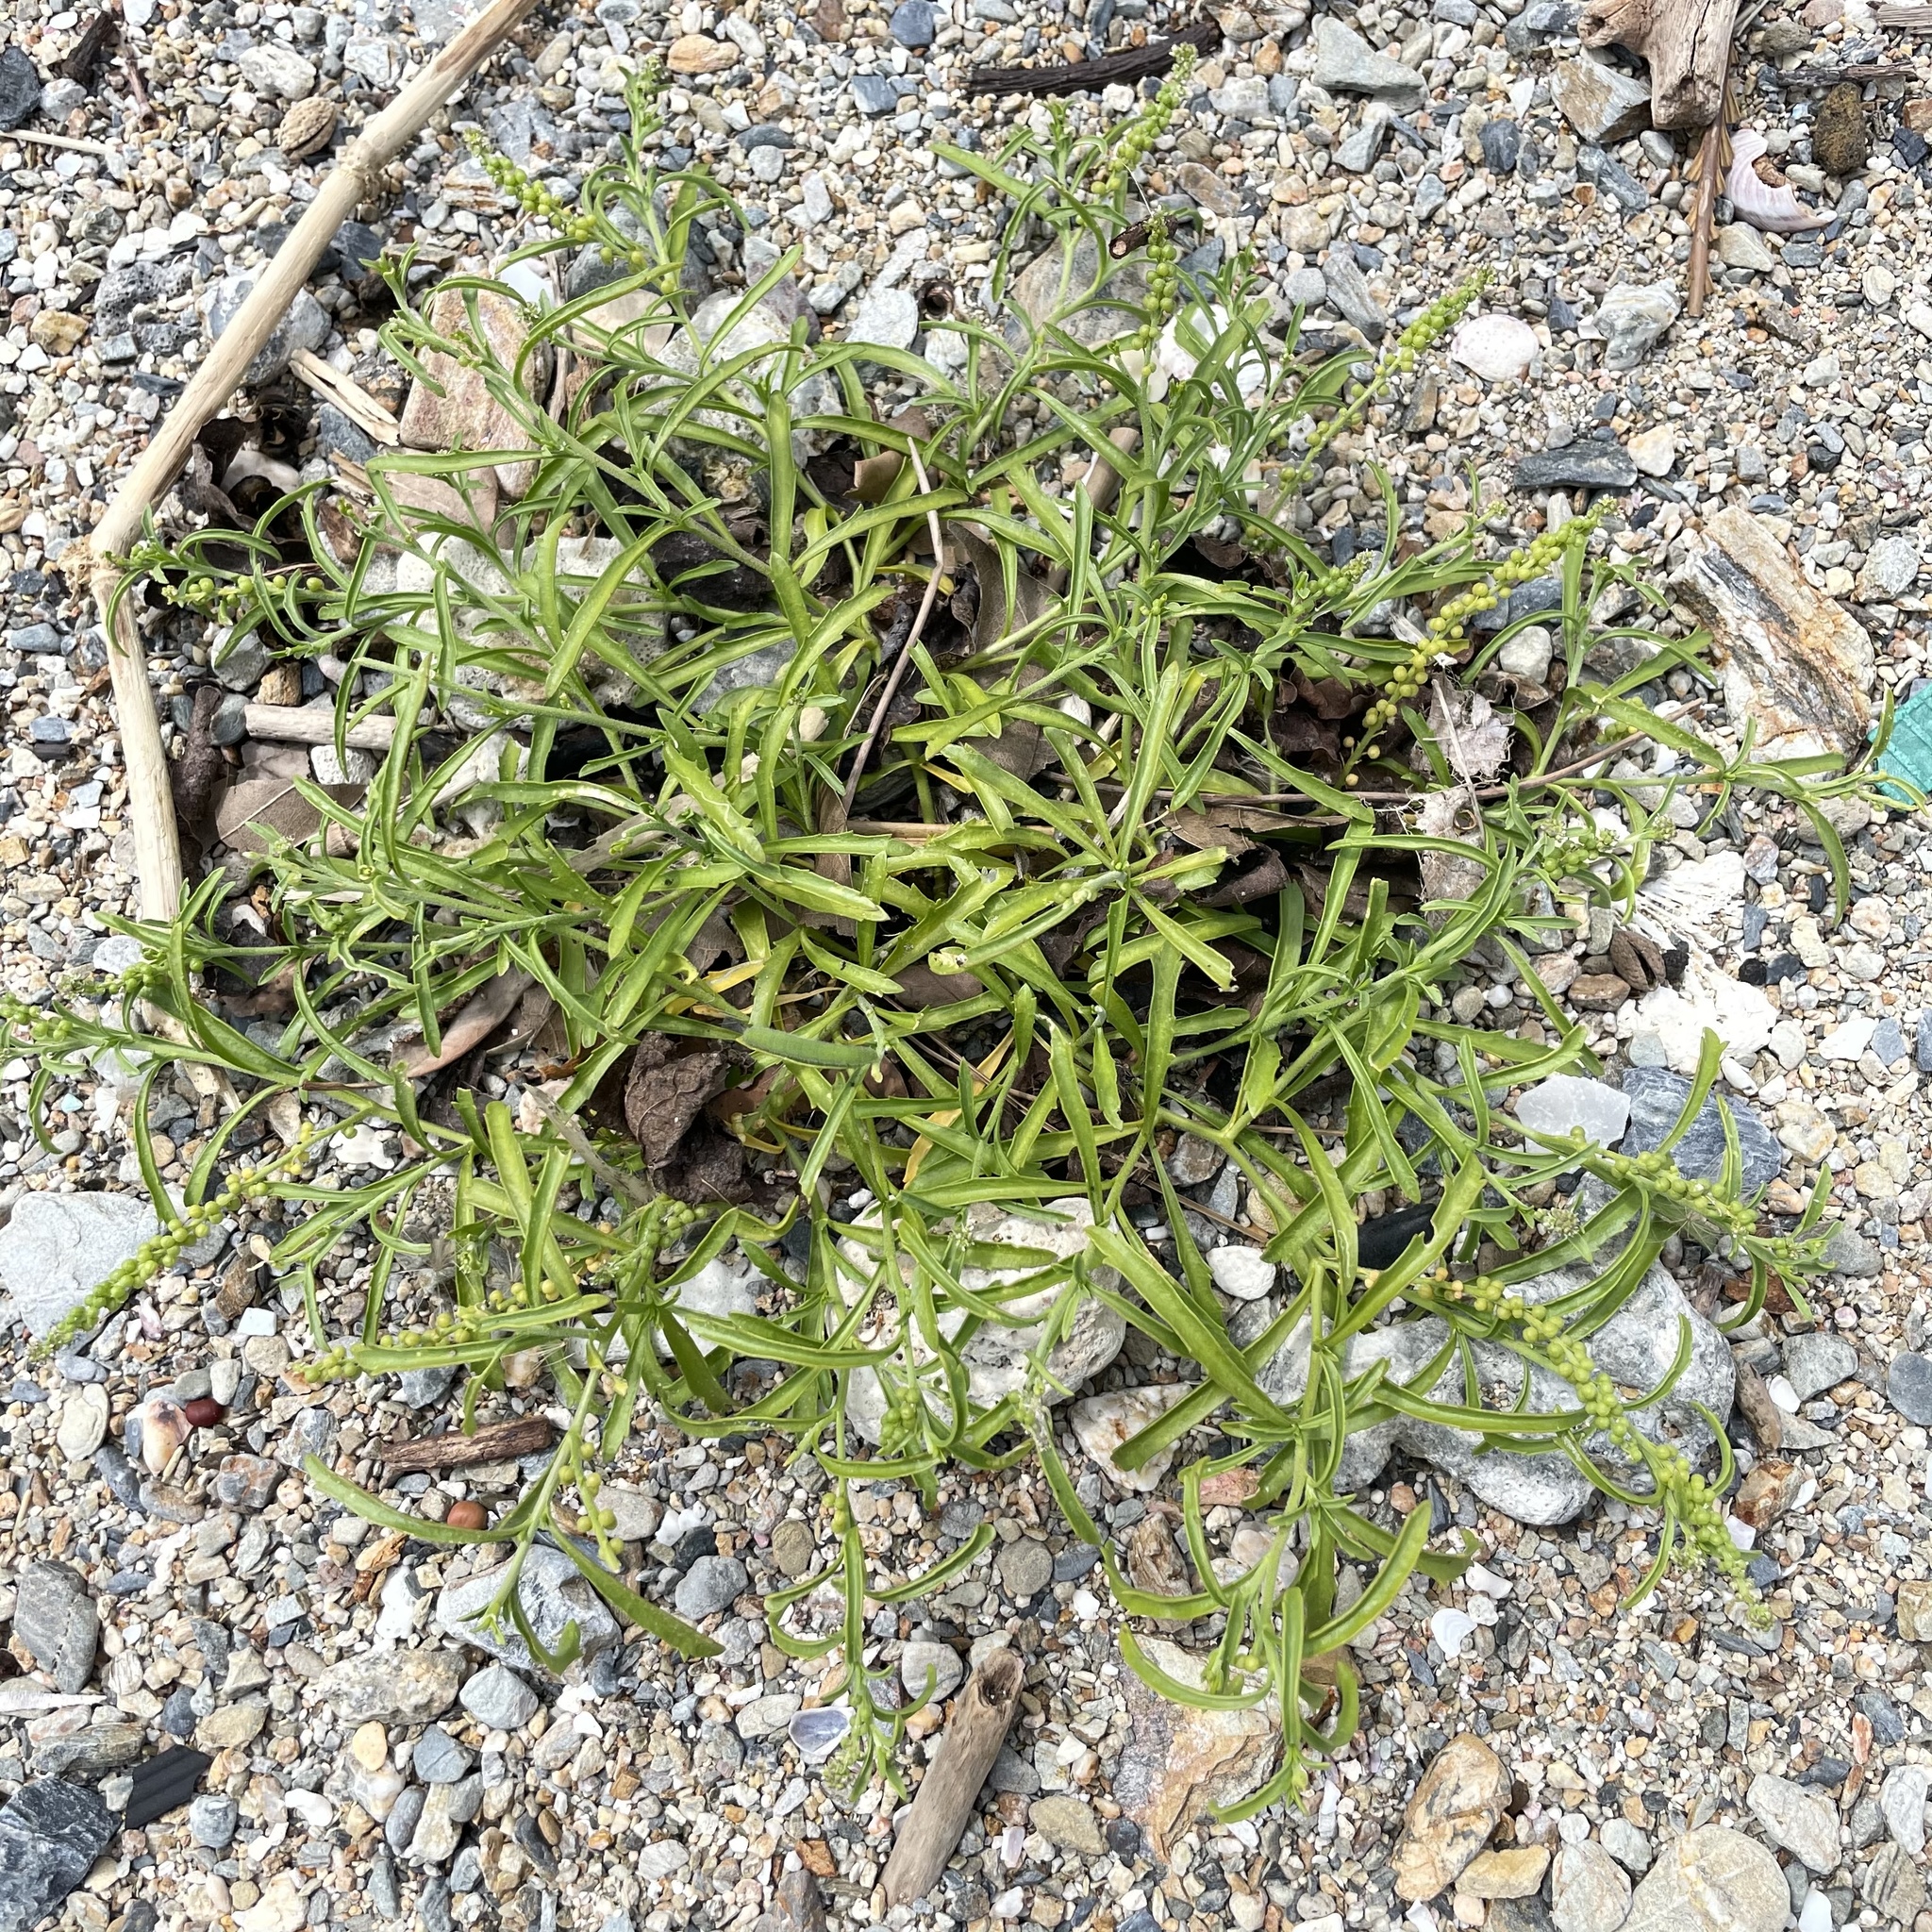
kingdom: Plantae
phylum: Tracheophyta
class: Magnoliopsida
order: Brassicales
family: Brassicaceae
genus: Lepidium
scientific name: Lepidium englerianum
